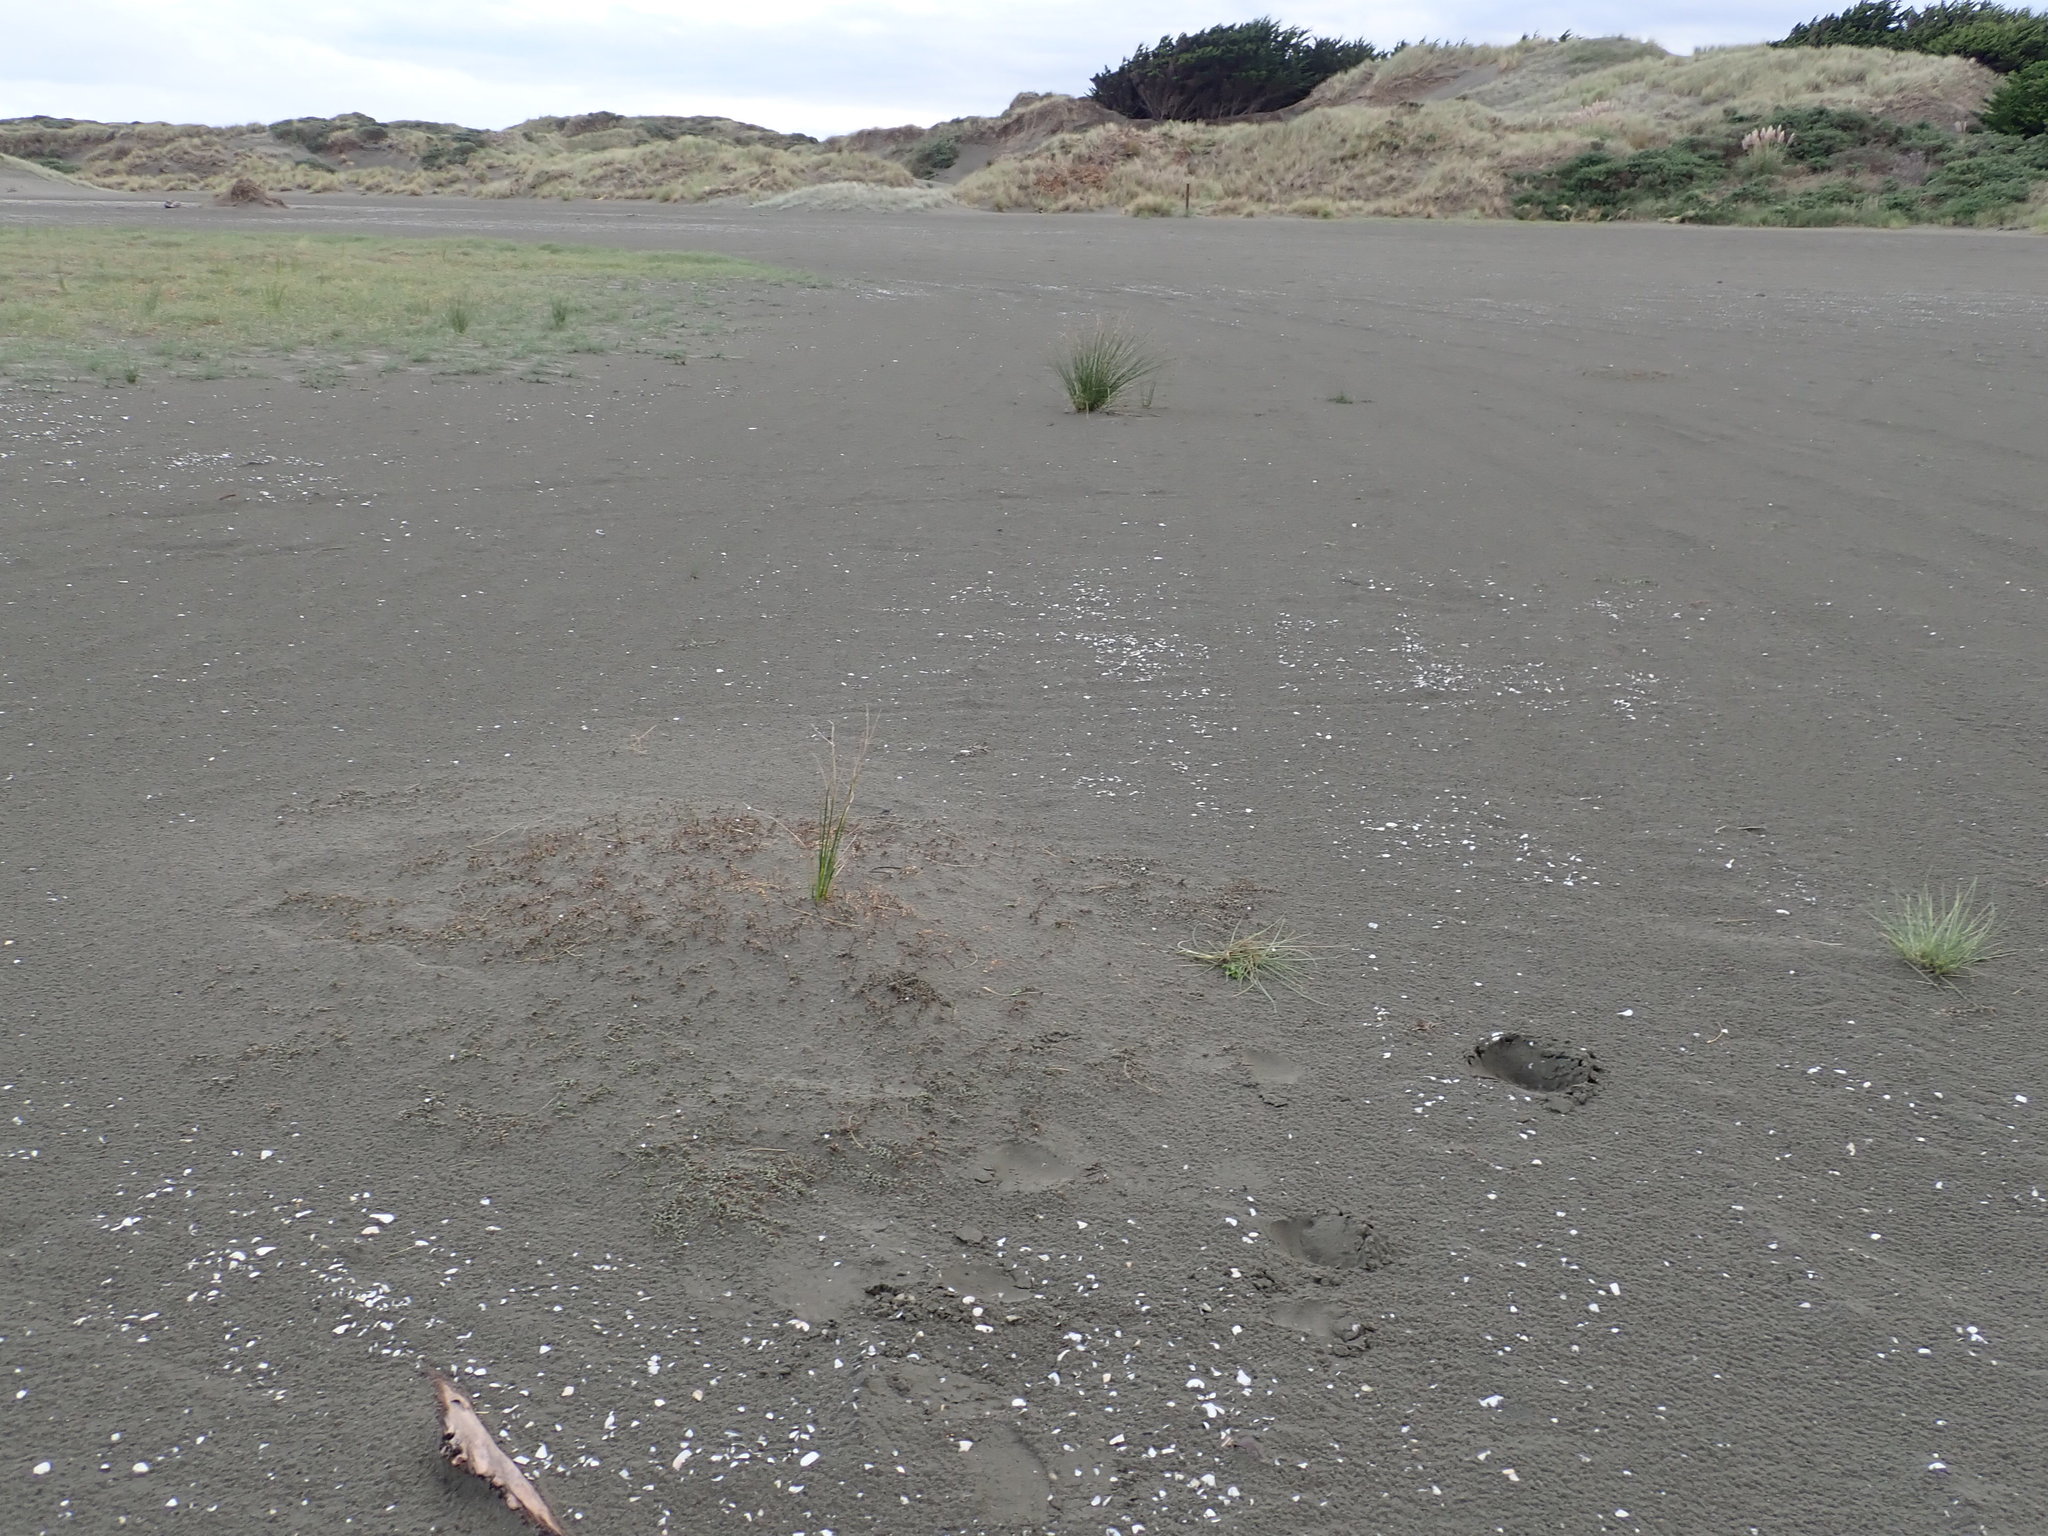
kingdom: Plantae
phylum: Tracheophyta
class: Magnoliopsida
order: Ericales
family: Primulaceae
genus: Samolus
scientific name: Samolus repens
